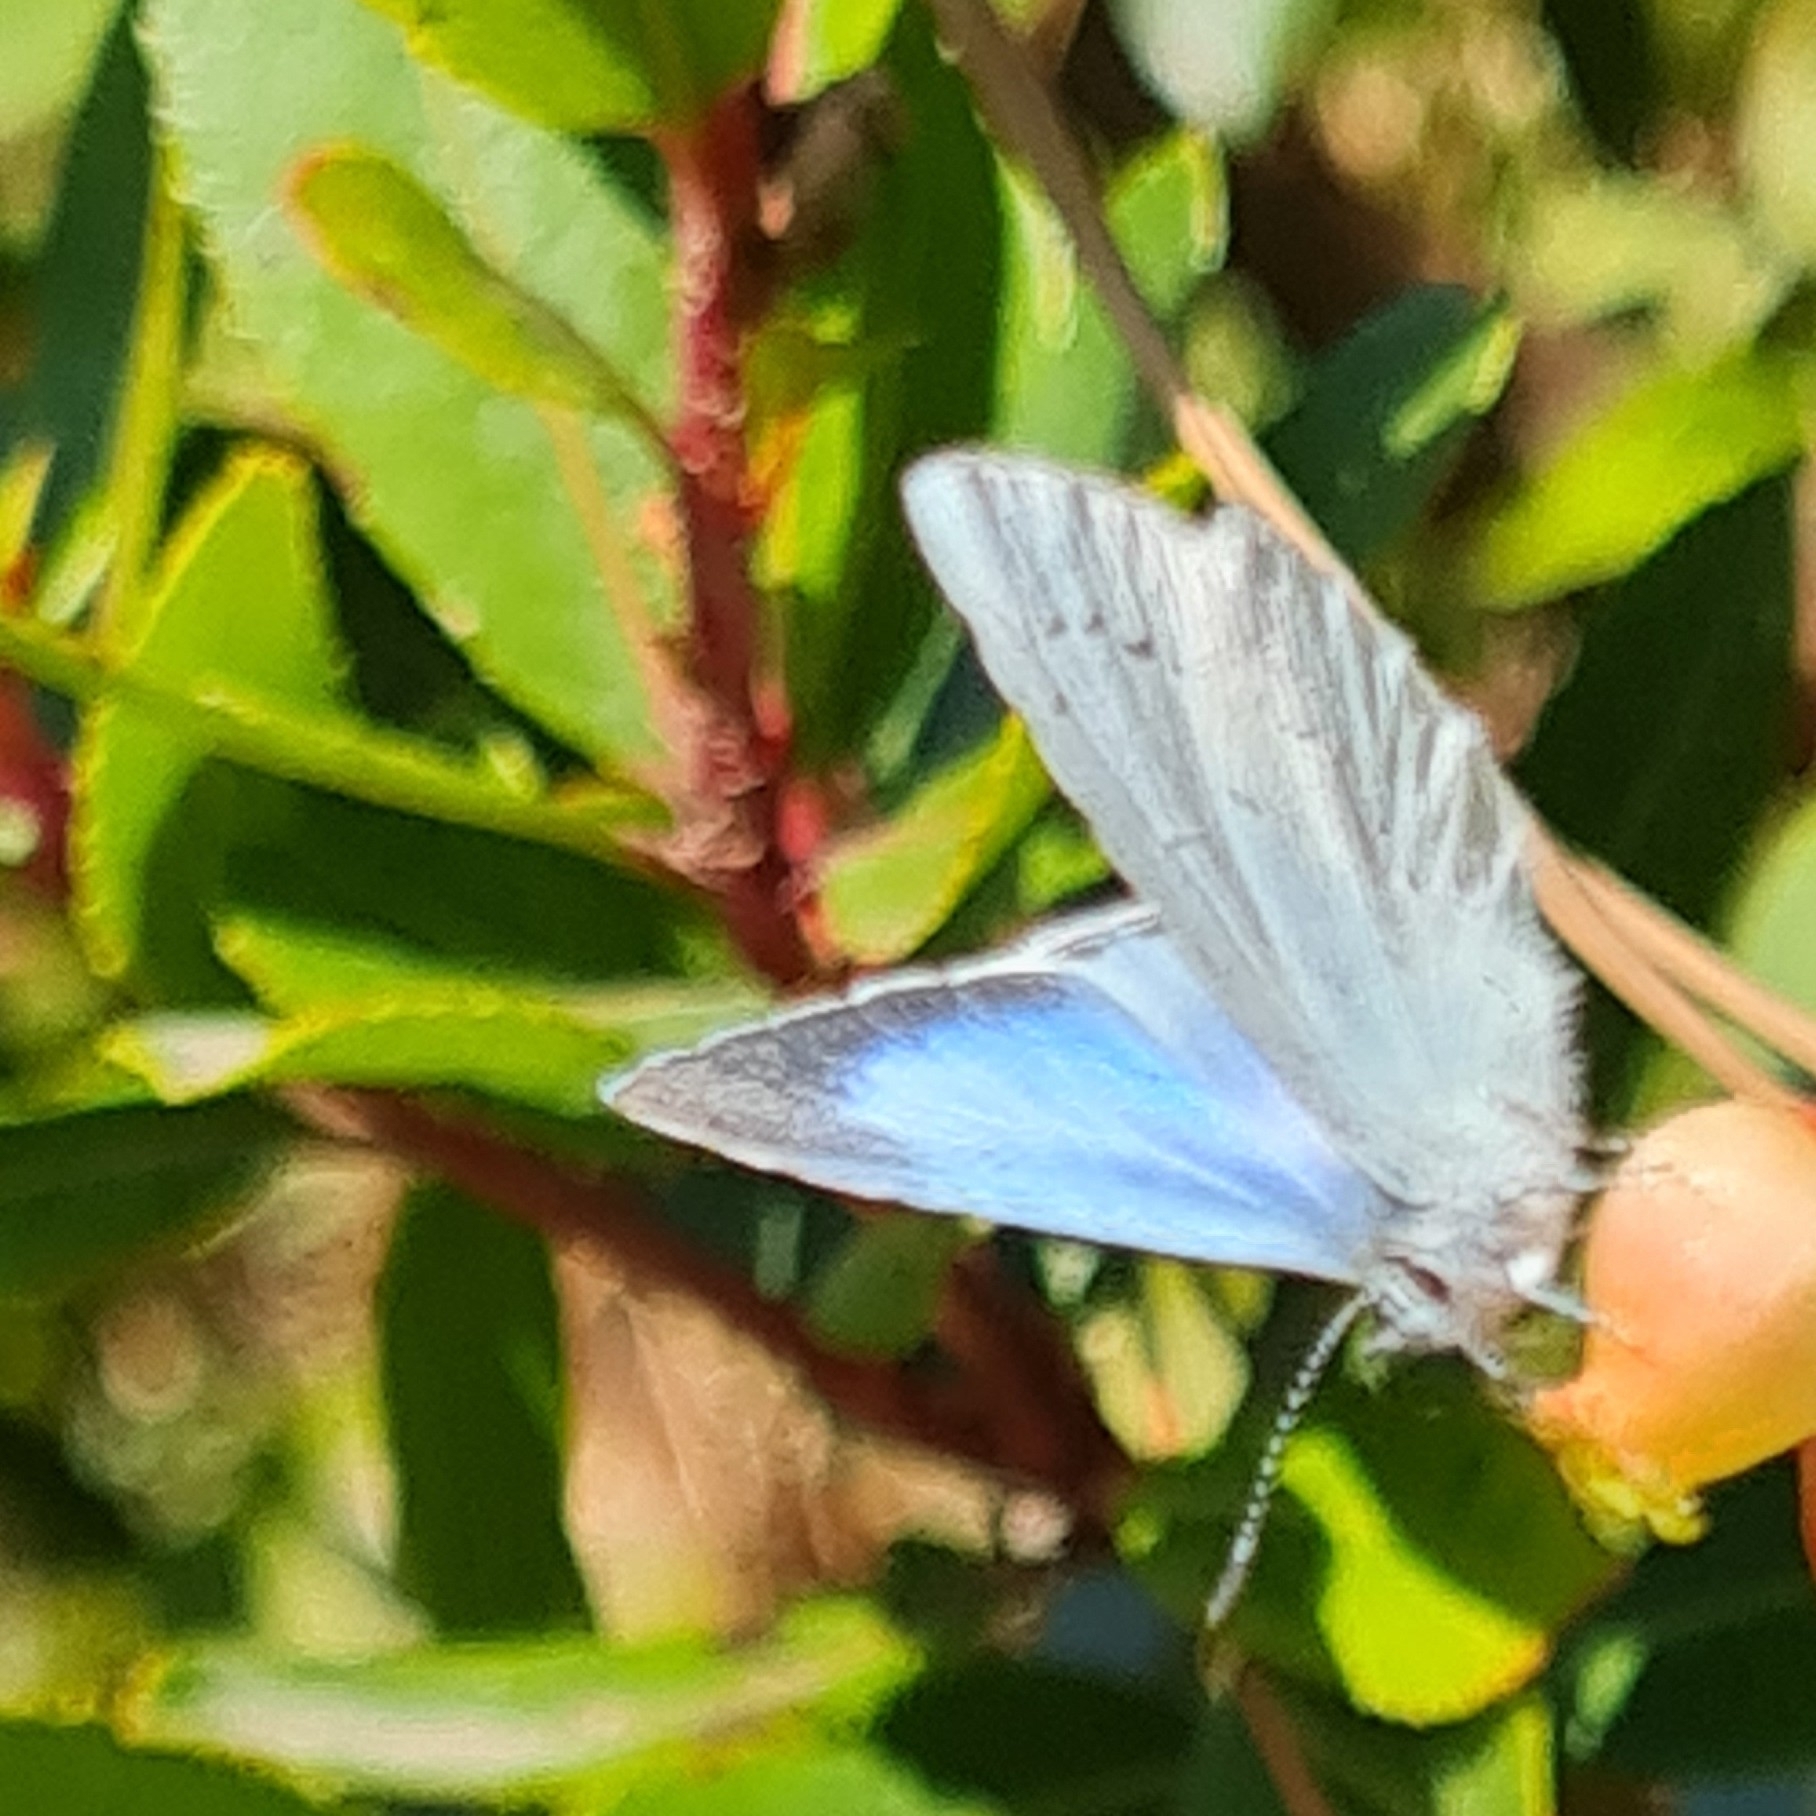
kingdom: Animalia
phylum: Arthropoda
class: Insecta
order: Lepidoptera
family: Lycaenidae
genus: Celastrina
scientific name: Celastrina argiolus
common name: Holly blue
